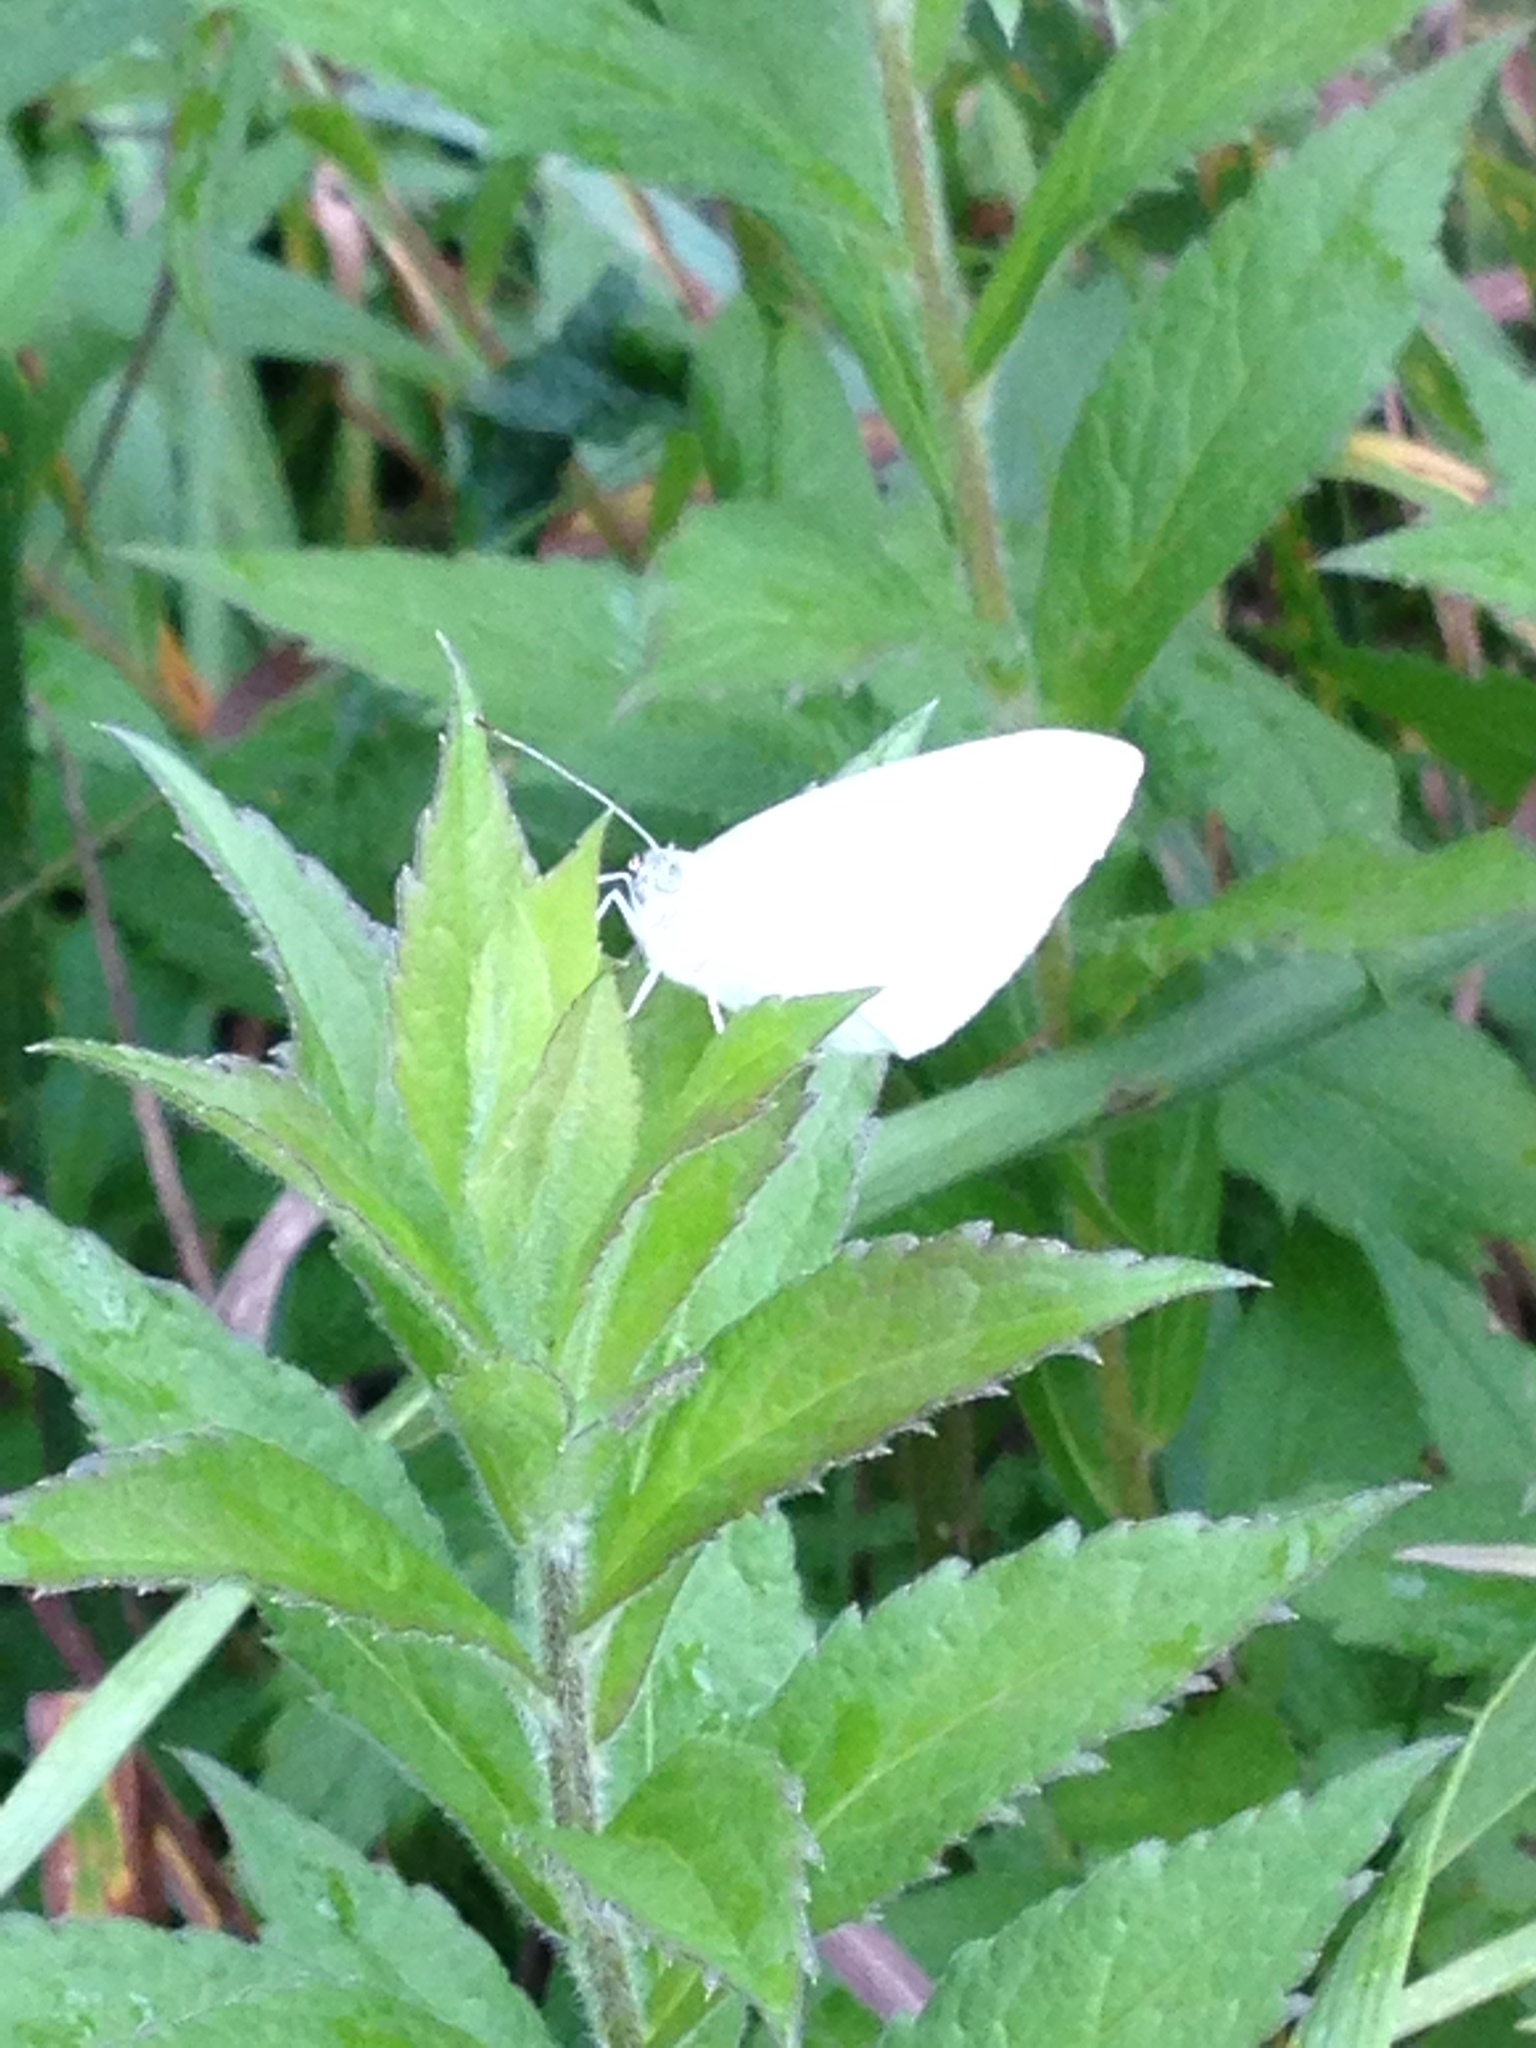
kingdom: Animalia
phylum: Arthropoda
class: Insecta
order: Lepidoptera
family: Pieridae
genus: Pieris
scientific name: Pieris rapae
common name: Small white
